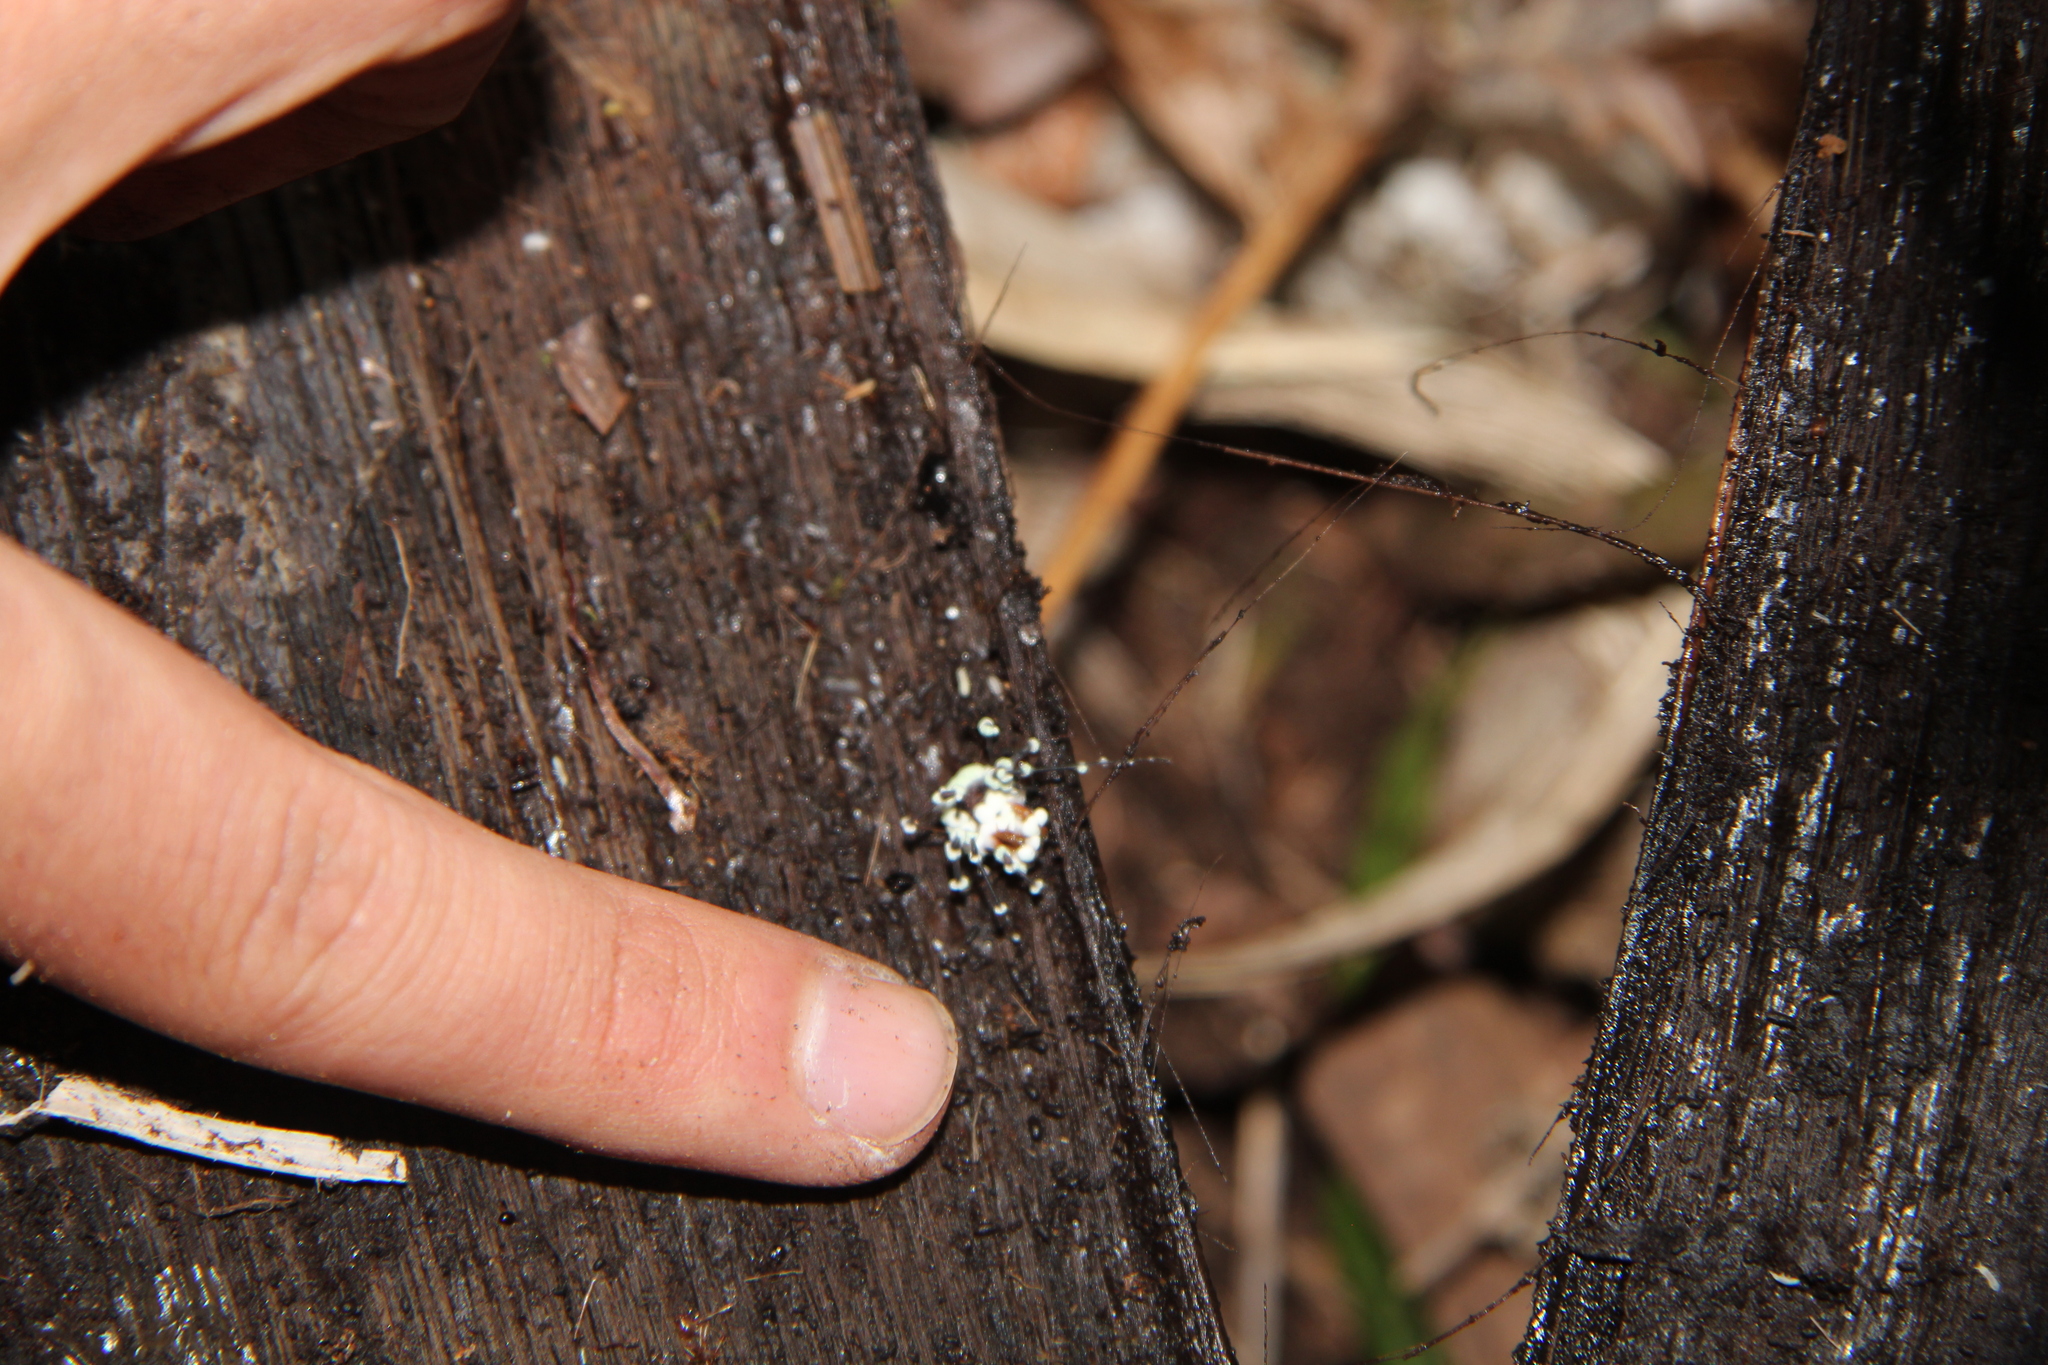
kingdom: Animalia
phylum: Arthropoda
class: Arachnida
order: Opiliones
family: Triaenonychidae
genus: Sorensenella
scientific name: Sorensenella prehensor
